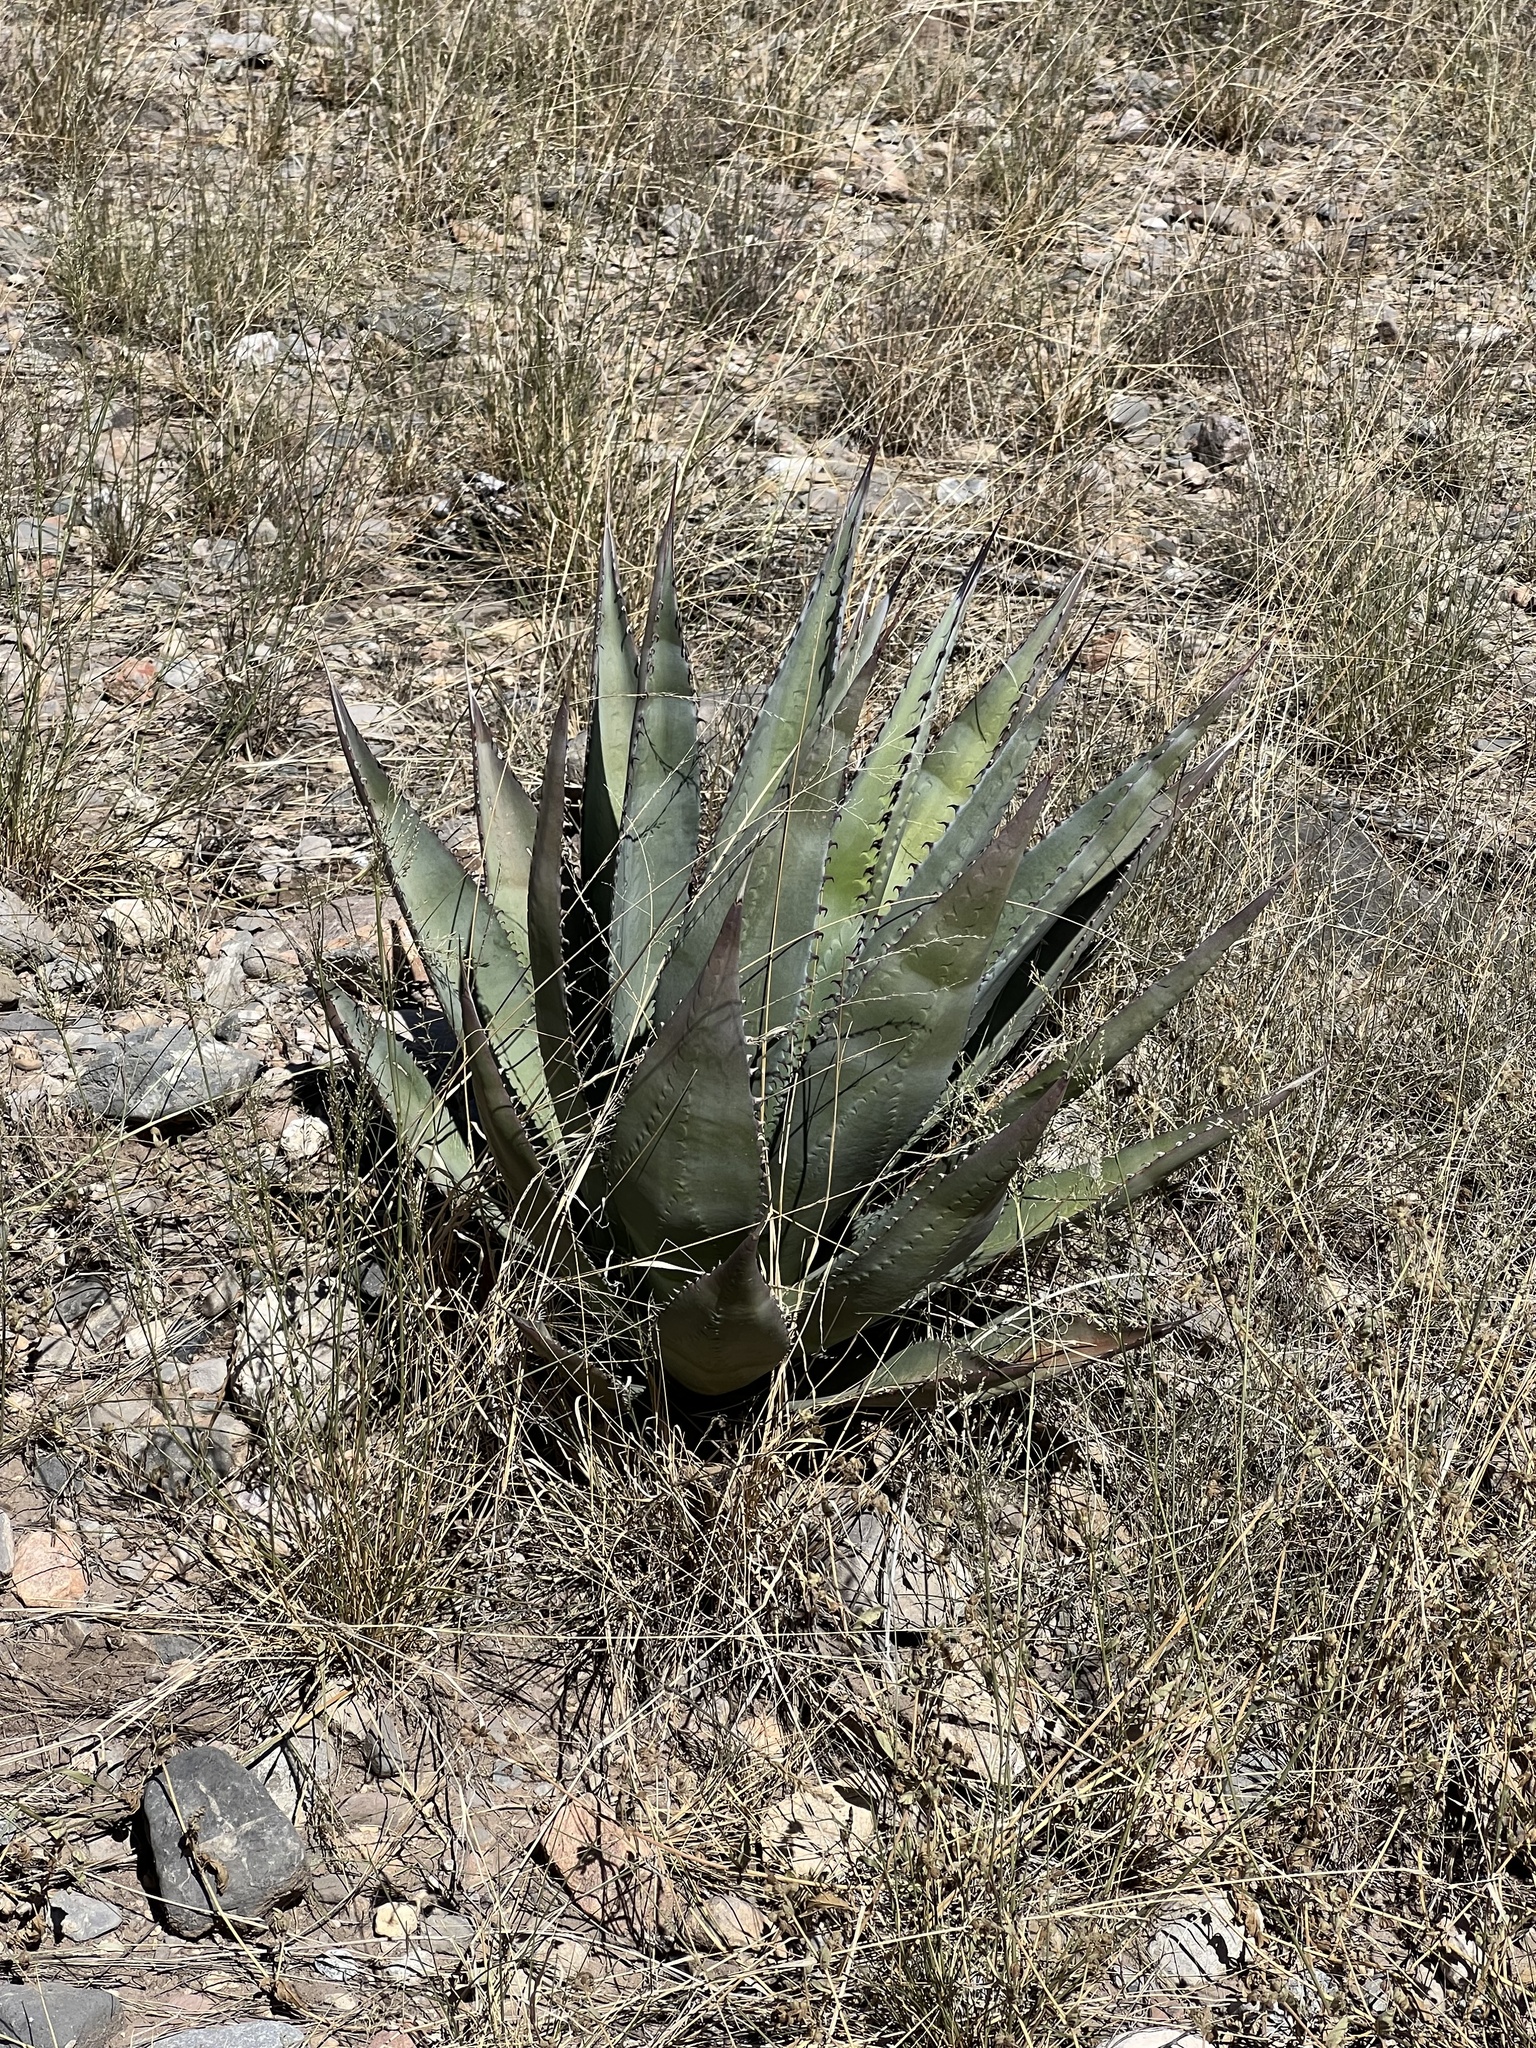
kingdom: Plantae
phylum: Tracheophyta
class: Liliopsida
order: Asparagales
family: Asparagaceae
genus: Agave
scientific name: Agave palmeri
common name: Palmer agave
